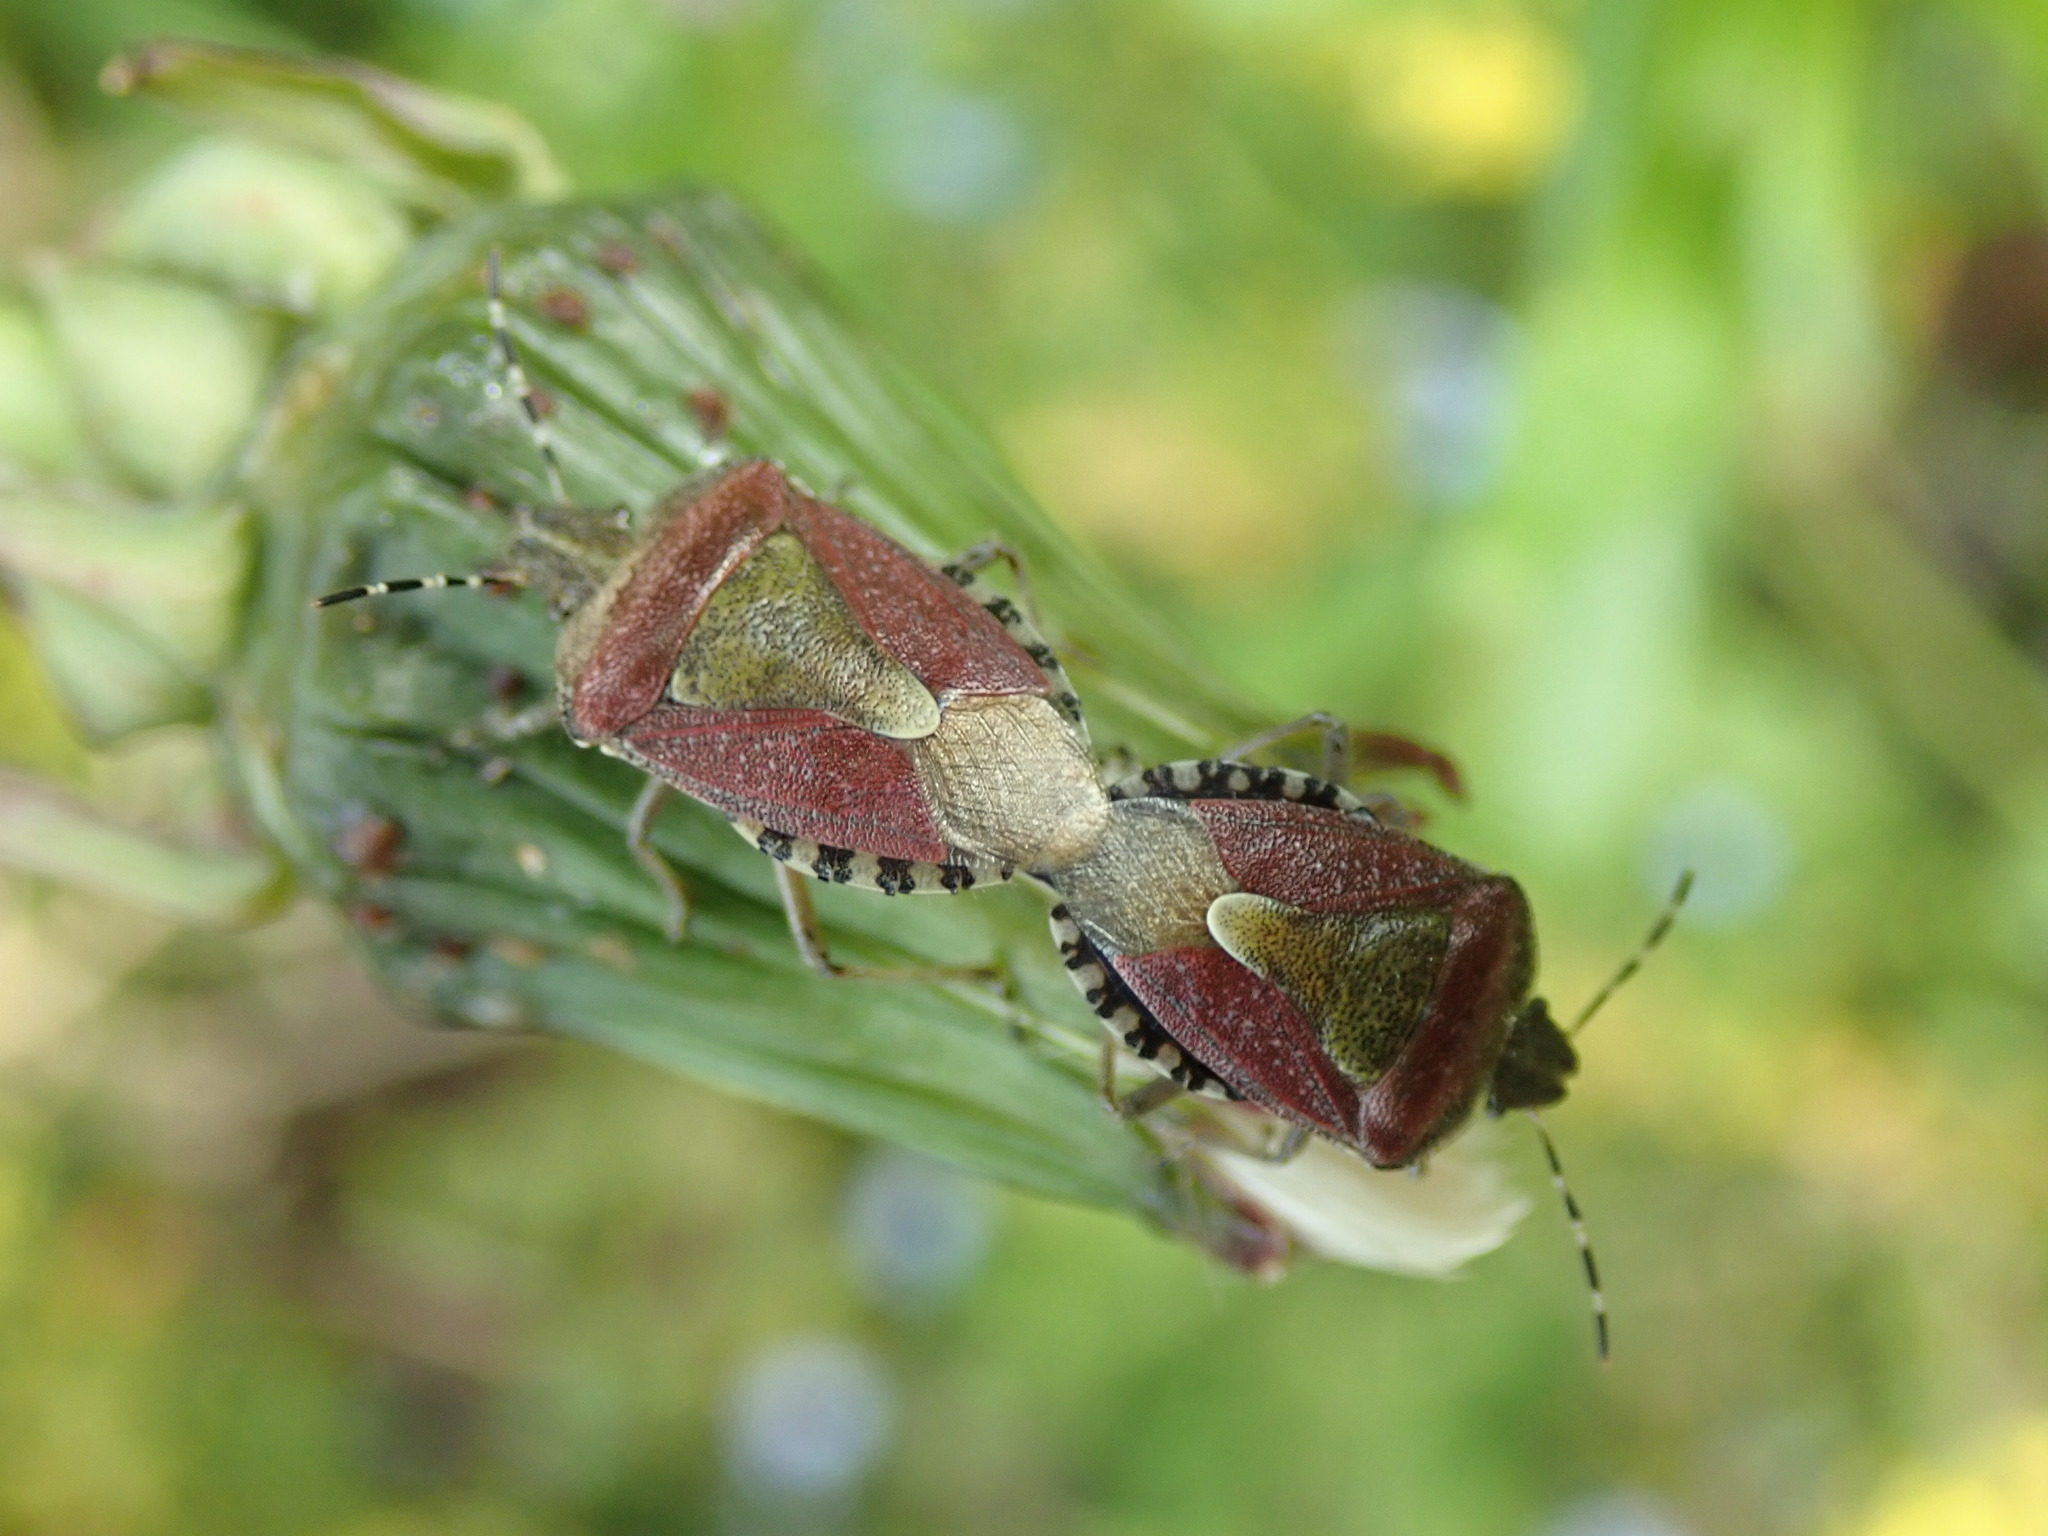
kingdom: Animalia
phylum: Arthropoda
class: Insecta
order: Hemiptera
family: Pentatomidae
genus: Dolycoris
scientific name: Dolycoris baccarum
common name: Sloe bug
